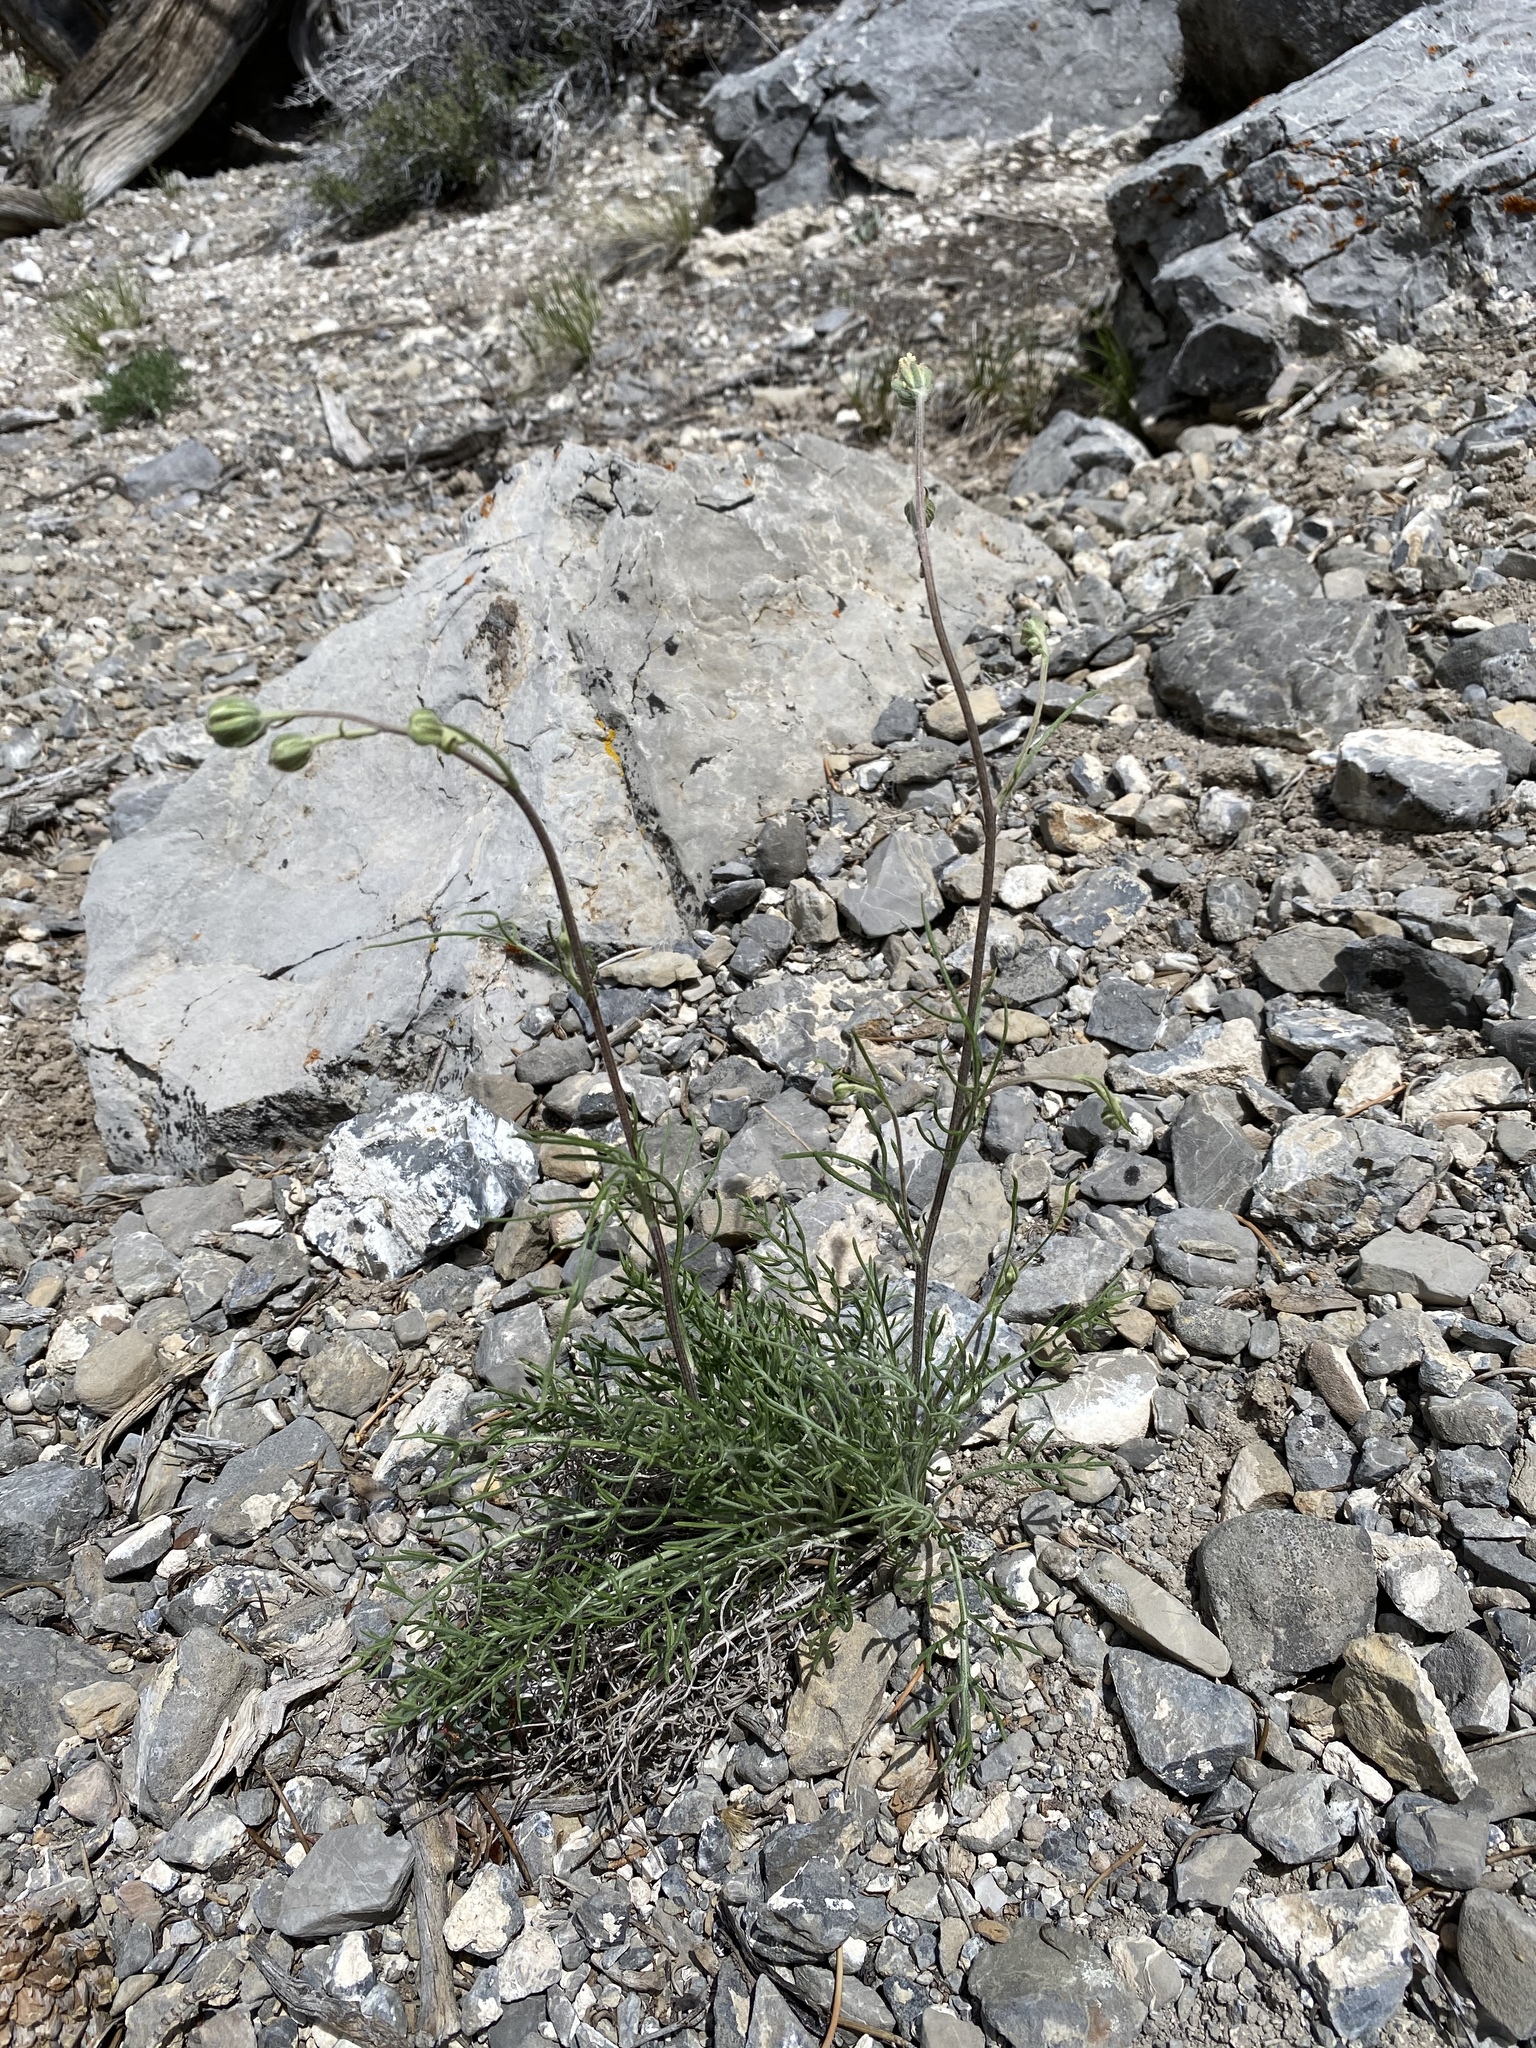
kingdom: Plantae
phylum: Tracheophyta
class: Magnoliopsida
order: Asterales
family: Asteraceae
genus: Hymenopappus
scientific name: Hymenopappus filifolius
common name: Columbia cutleaf
